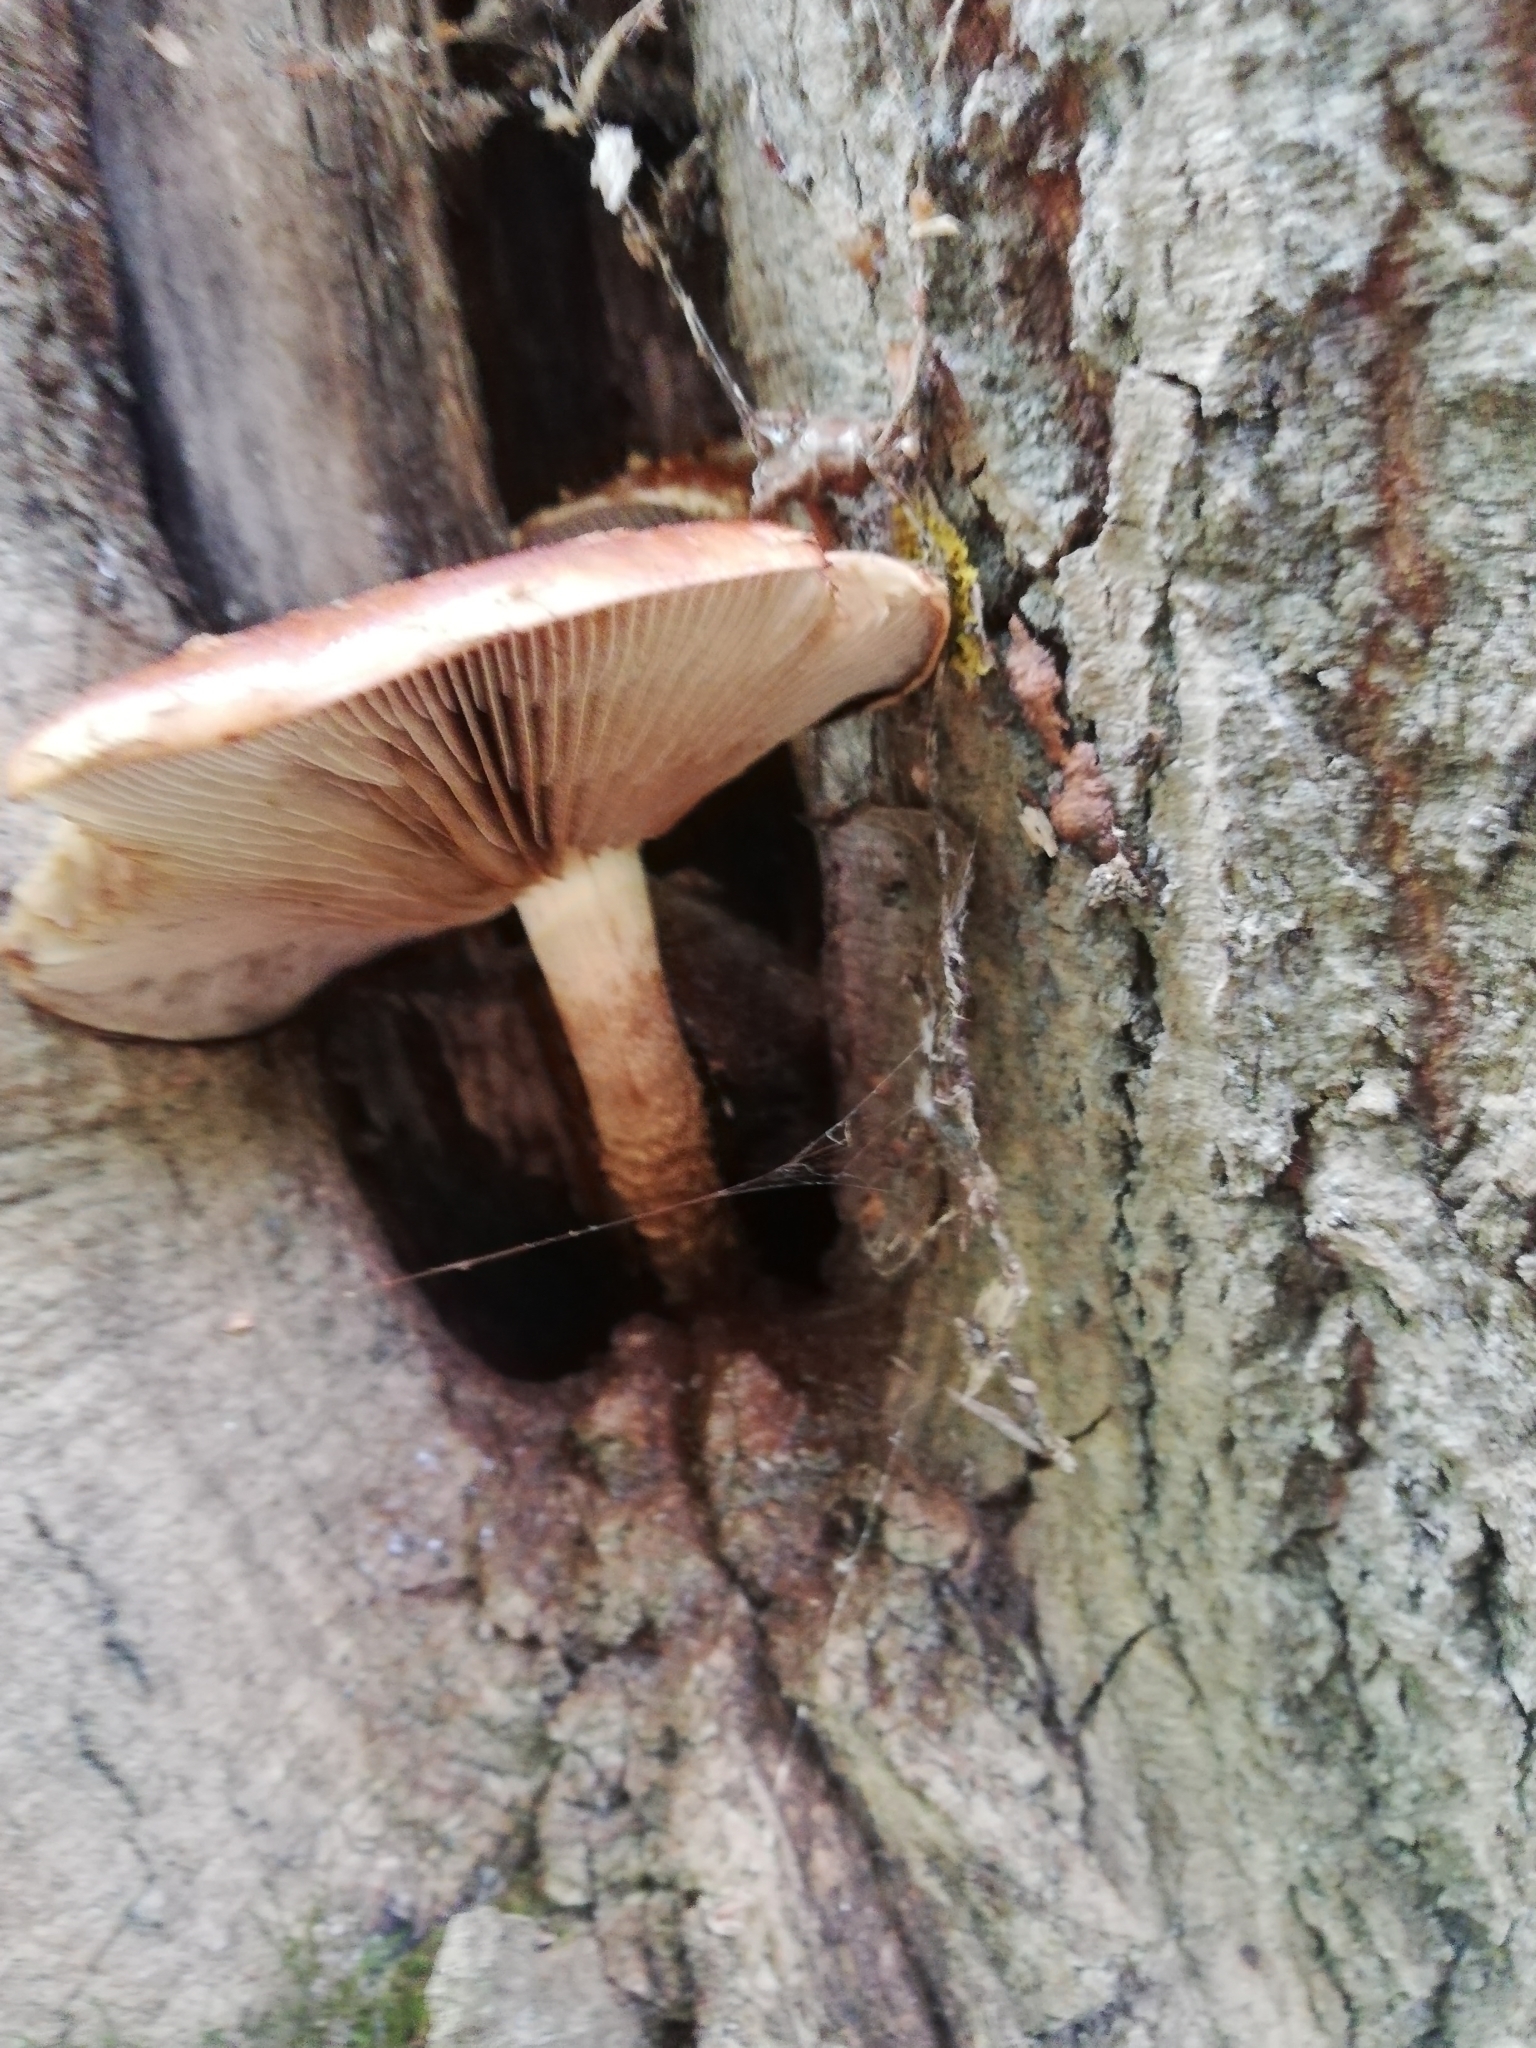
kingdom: Fungi
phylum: Basidiomycota
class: Agaricomycetes
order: Agaricales
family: Tubariaceae
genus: Hemistropharia
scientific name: Hemistropharia albocrenulata
